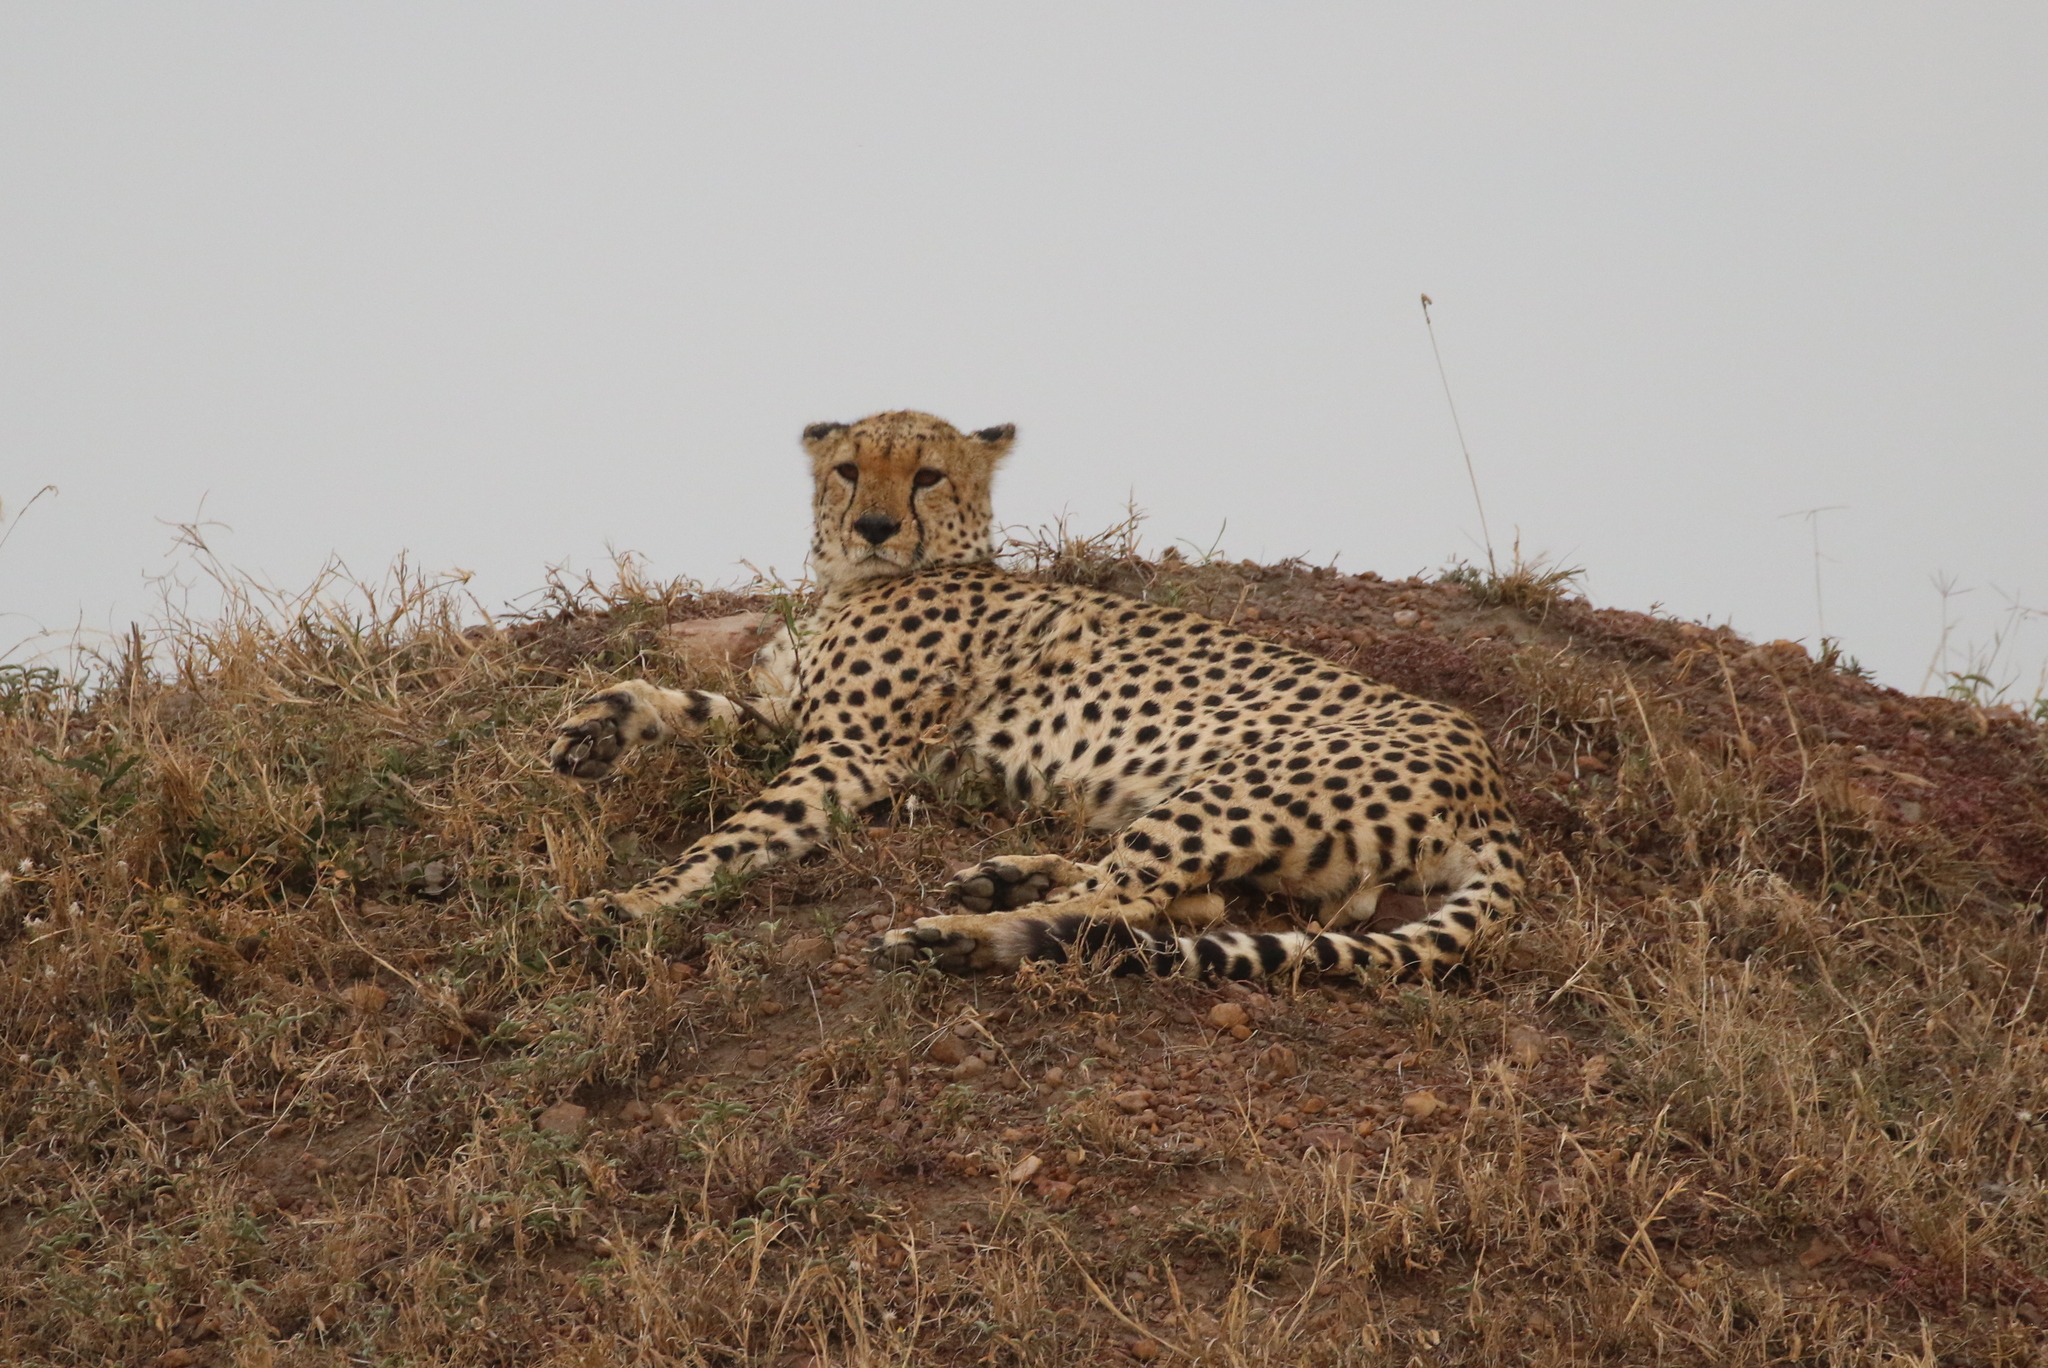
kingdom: Animalia
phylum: Chordata
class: Mammalia
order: Carnivora
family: Felidae
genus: Acinonyx
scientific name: Acinonyx jubatus
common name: Cheetah
